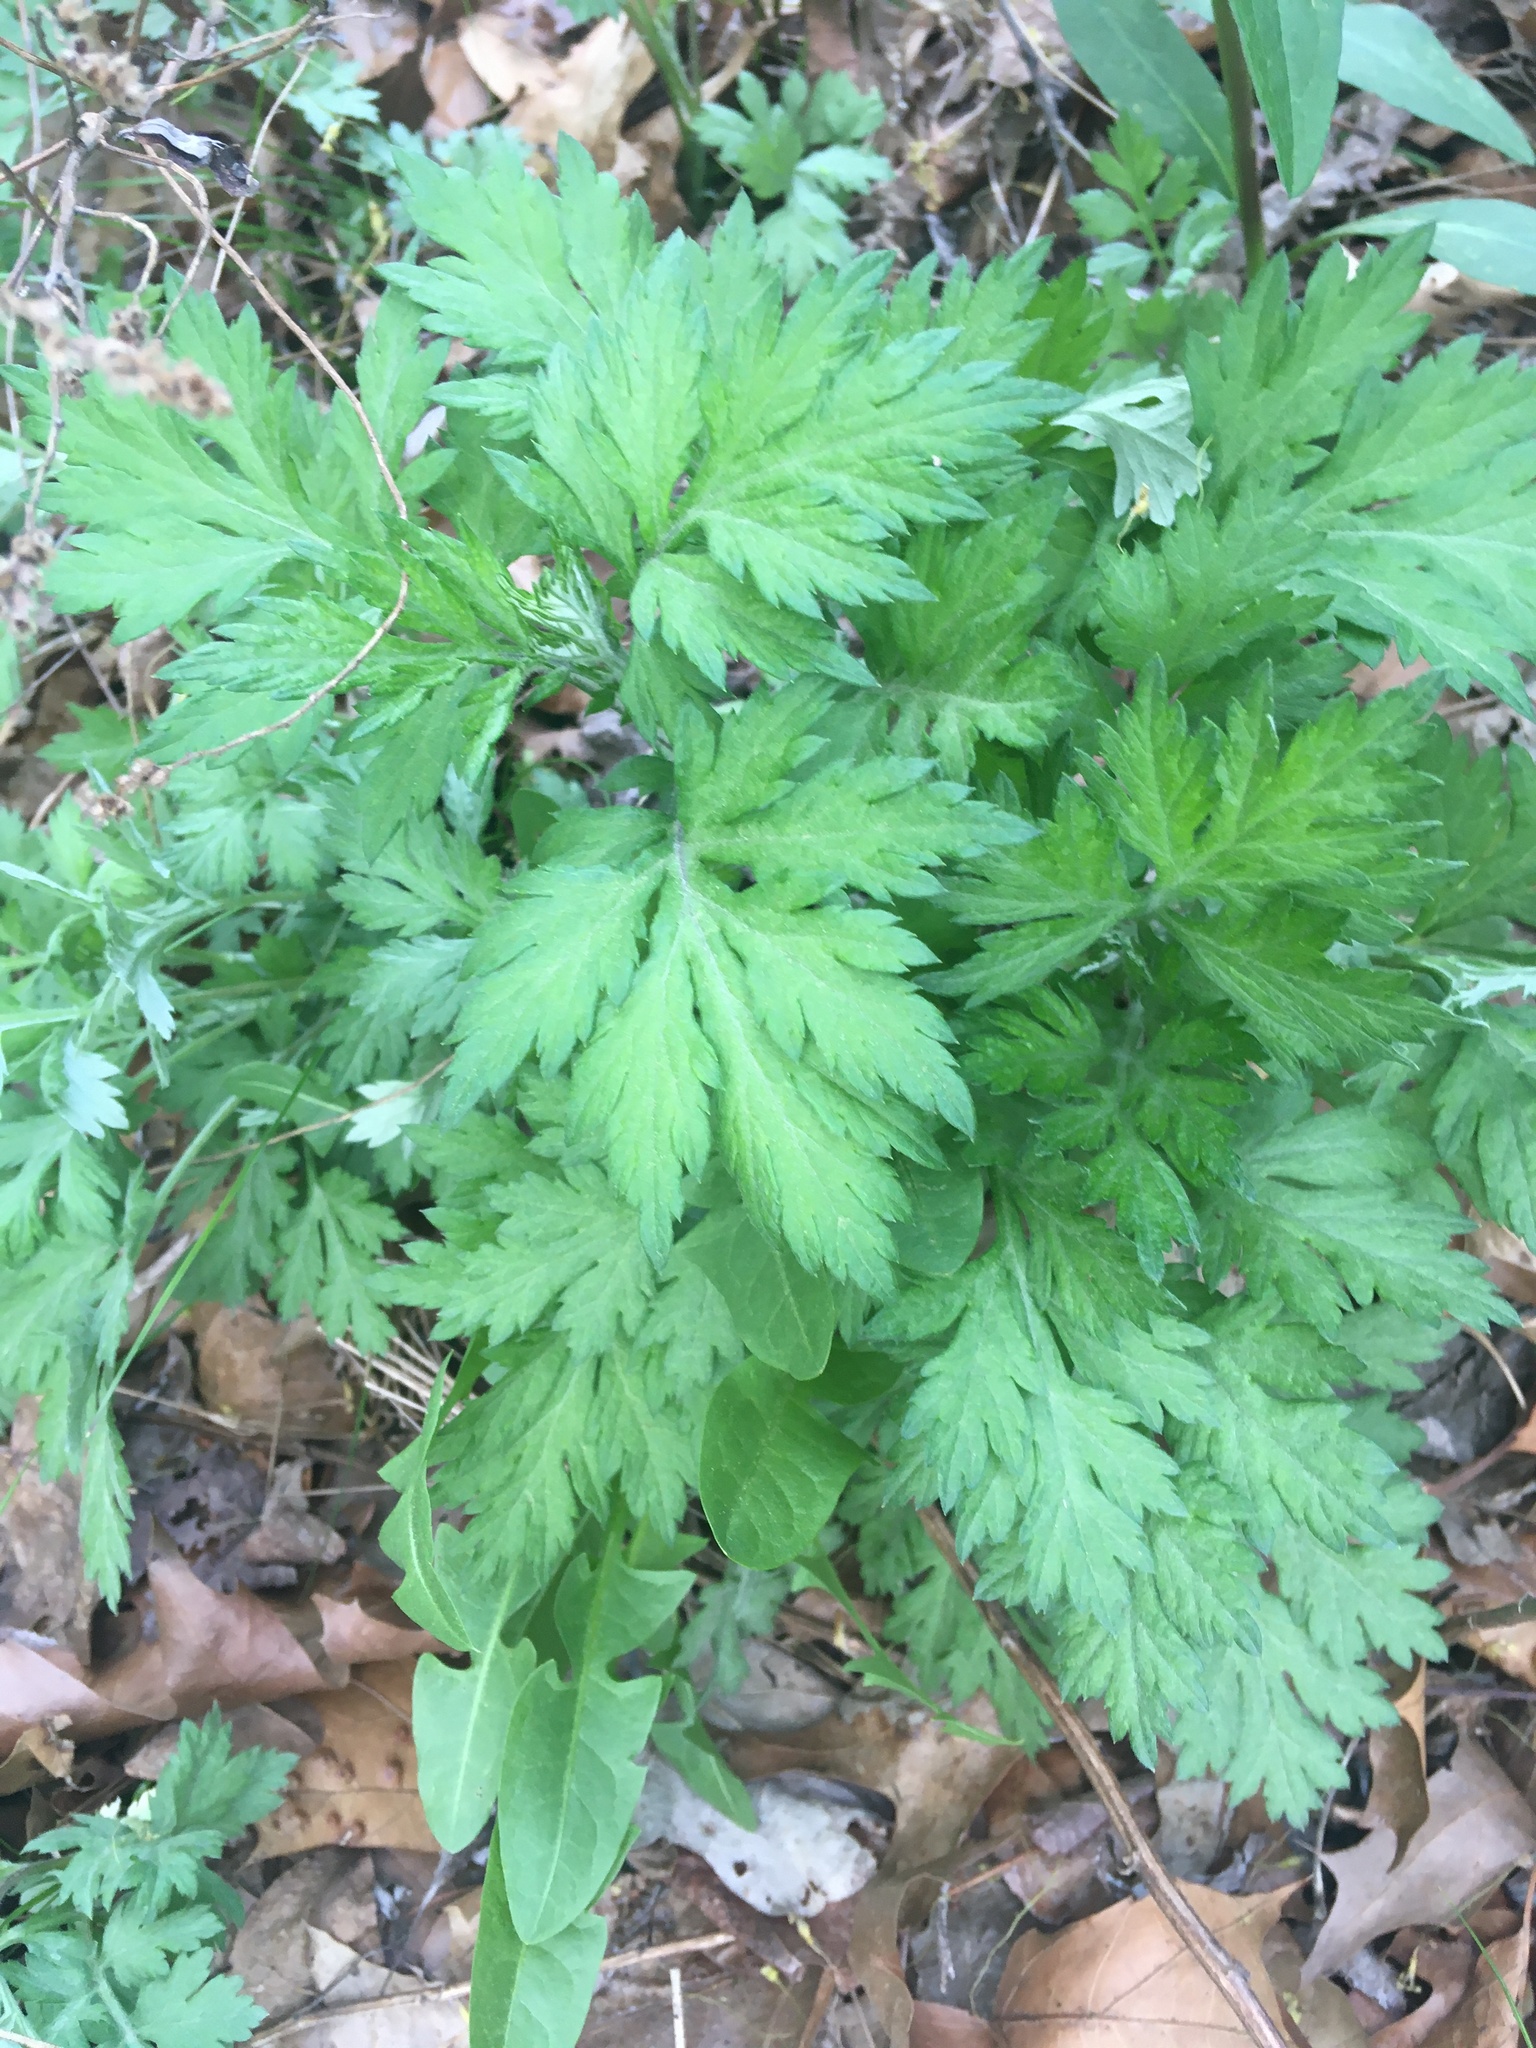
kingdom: Plantae
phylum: Tracheophyta
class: Magnoliopsida
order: Asterales
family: Asteraceae
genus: Artemisia
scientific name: Artemisia vulgaris
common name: Mugwort
